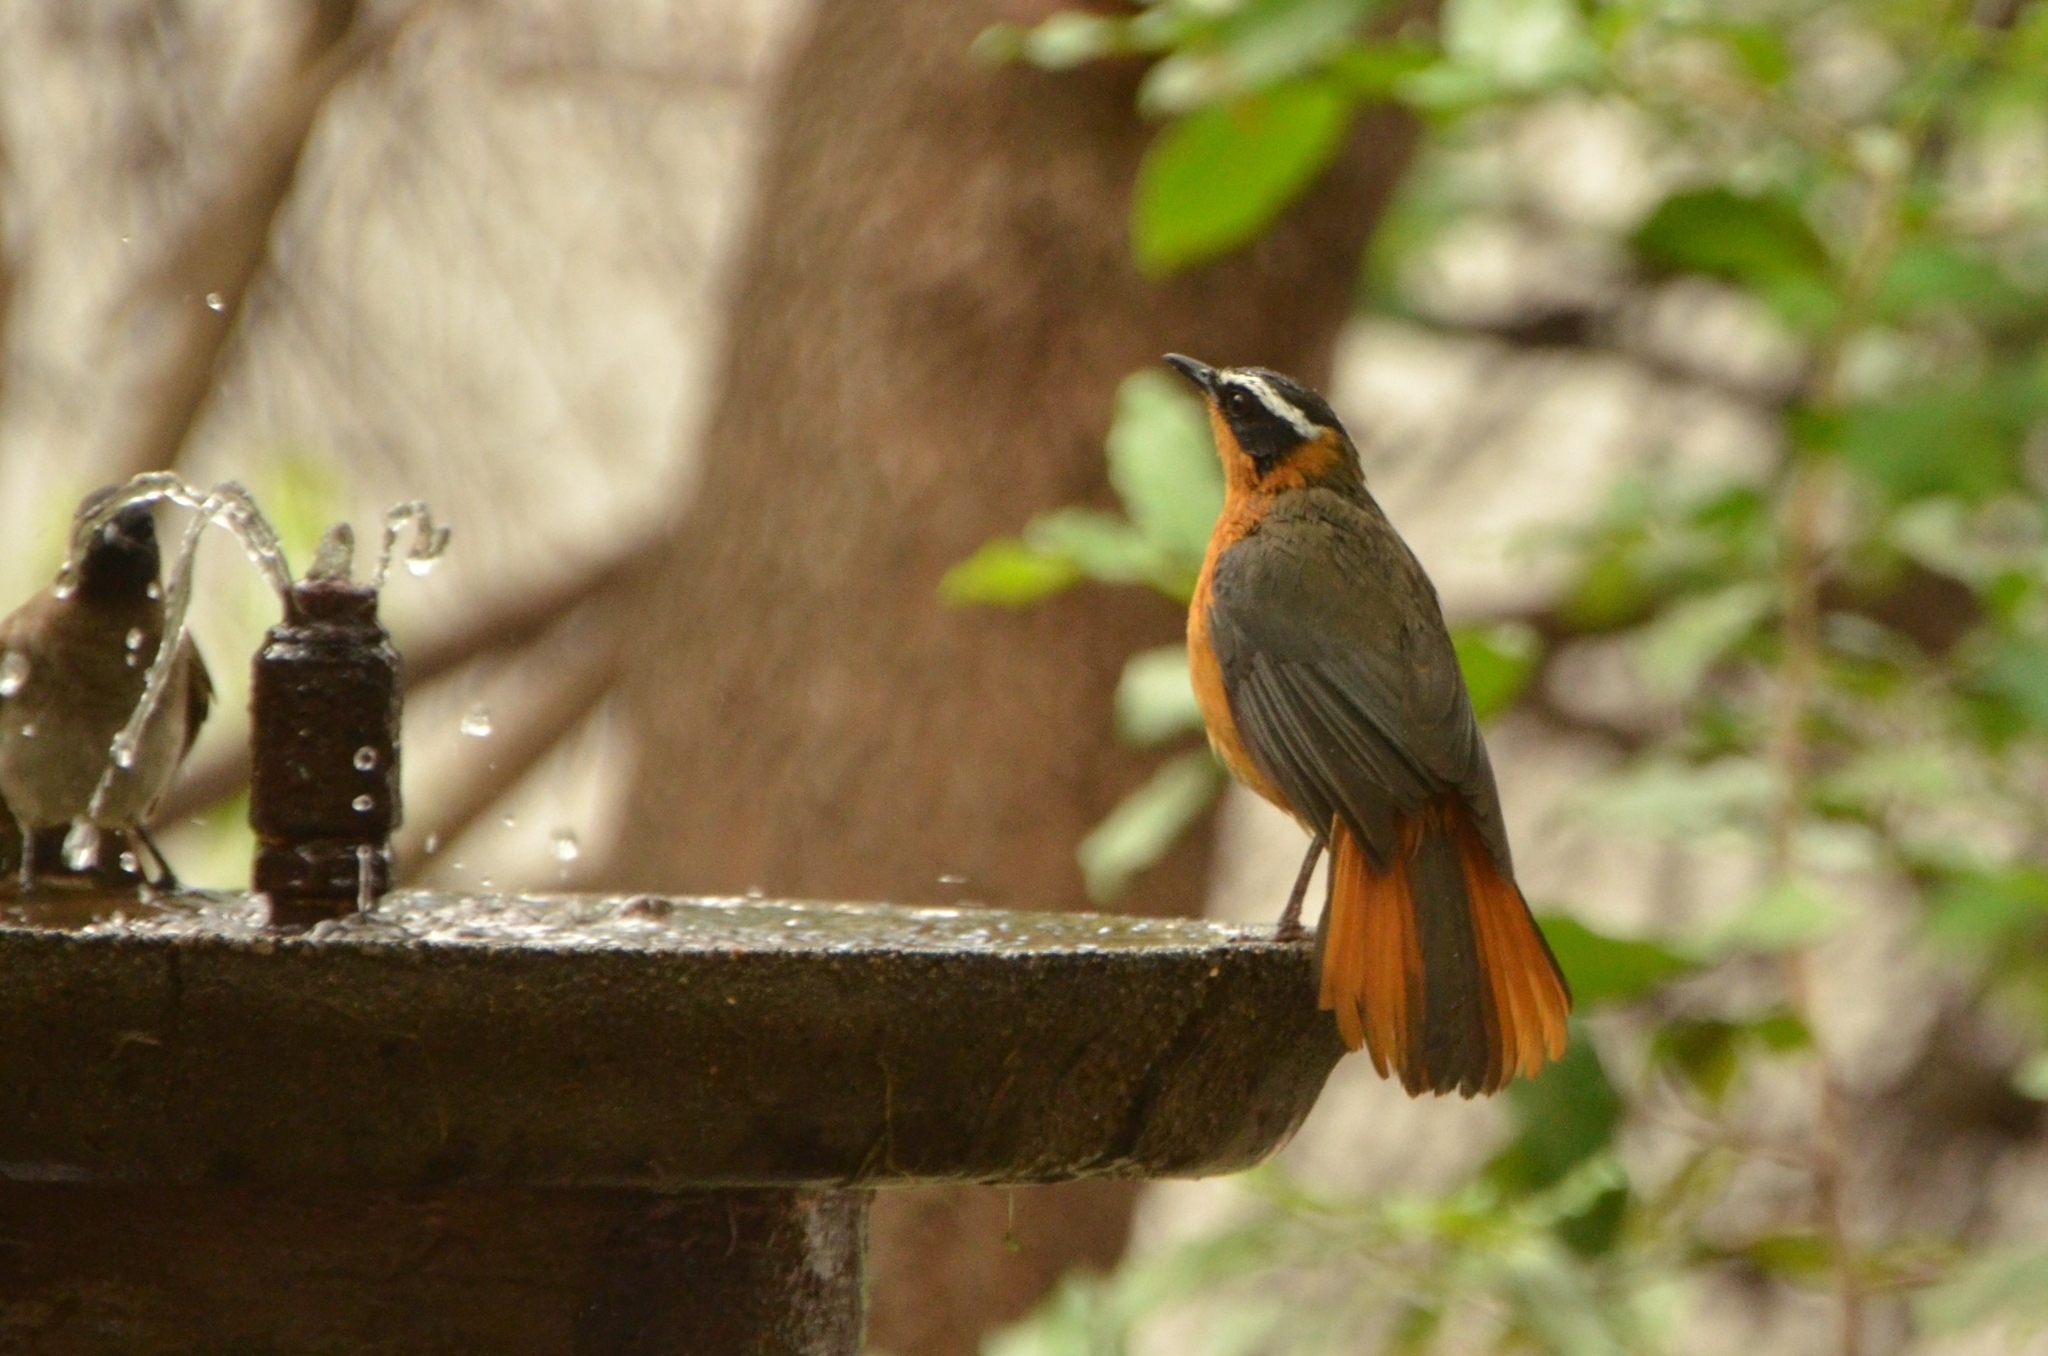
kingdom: Animalia
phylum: Chordata
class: Aves
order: Passeriformes
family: Muscicapidae
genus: Cossypha
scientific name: Cossypha heuglini
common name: White-browed robin-chat
